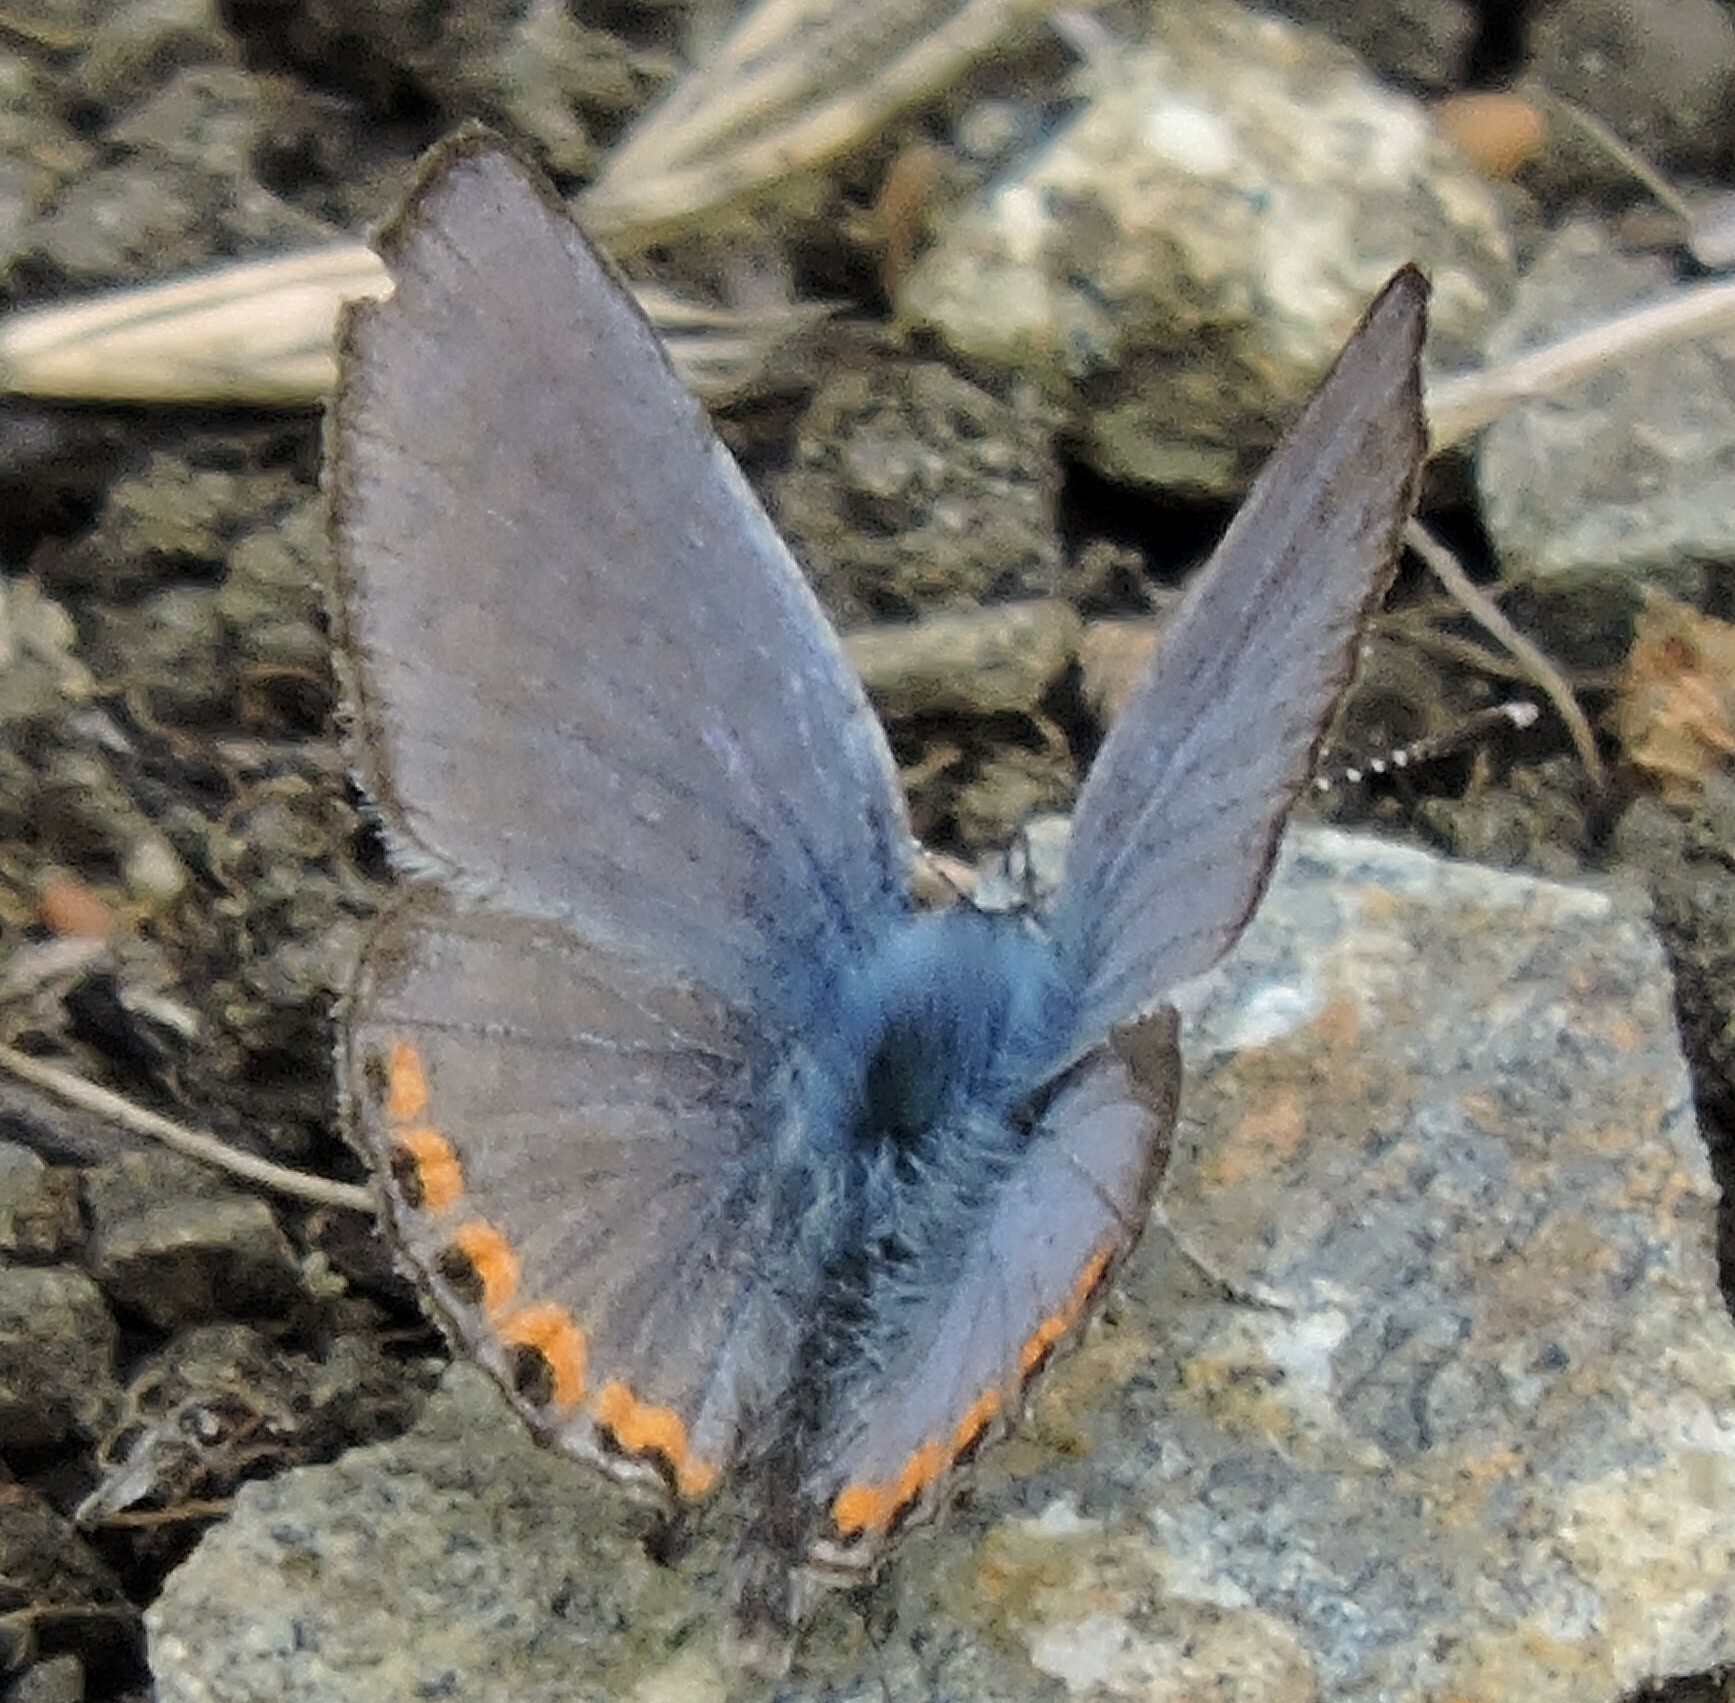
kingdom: Animalia
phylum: Arthropoda
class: Insecta
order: Lepidoptera
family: Lycaenidae
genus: Icaricia
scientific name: Icaricia acmon
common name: Acmon blue
